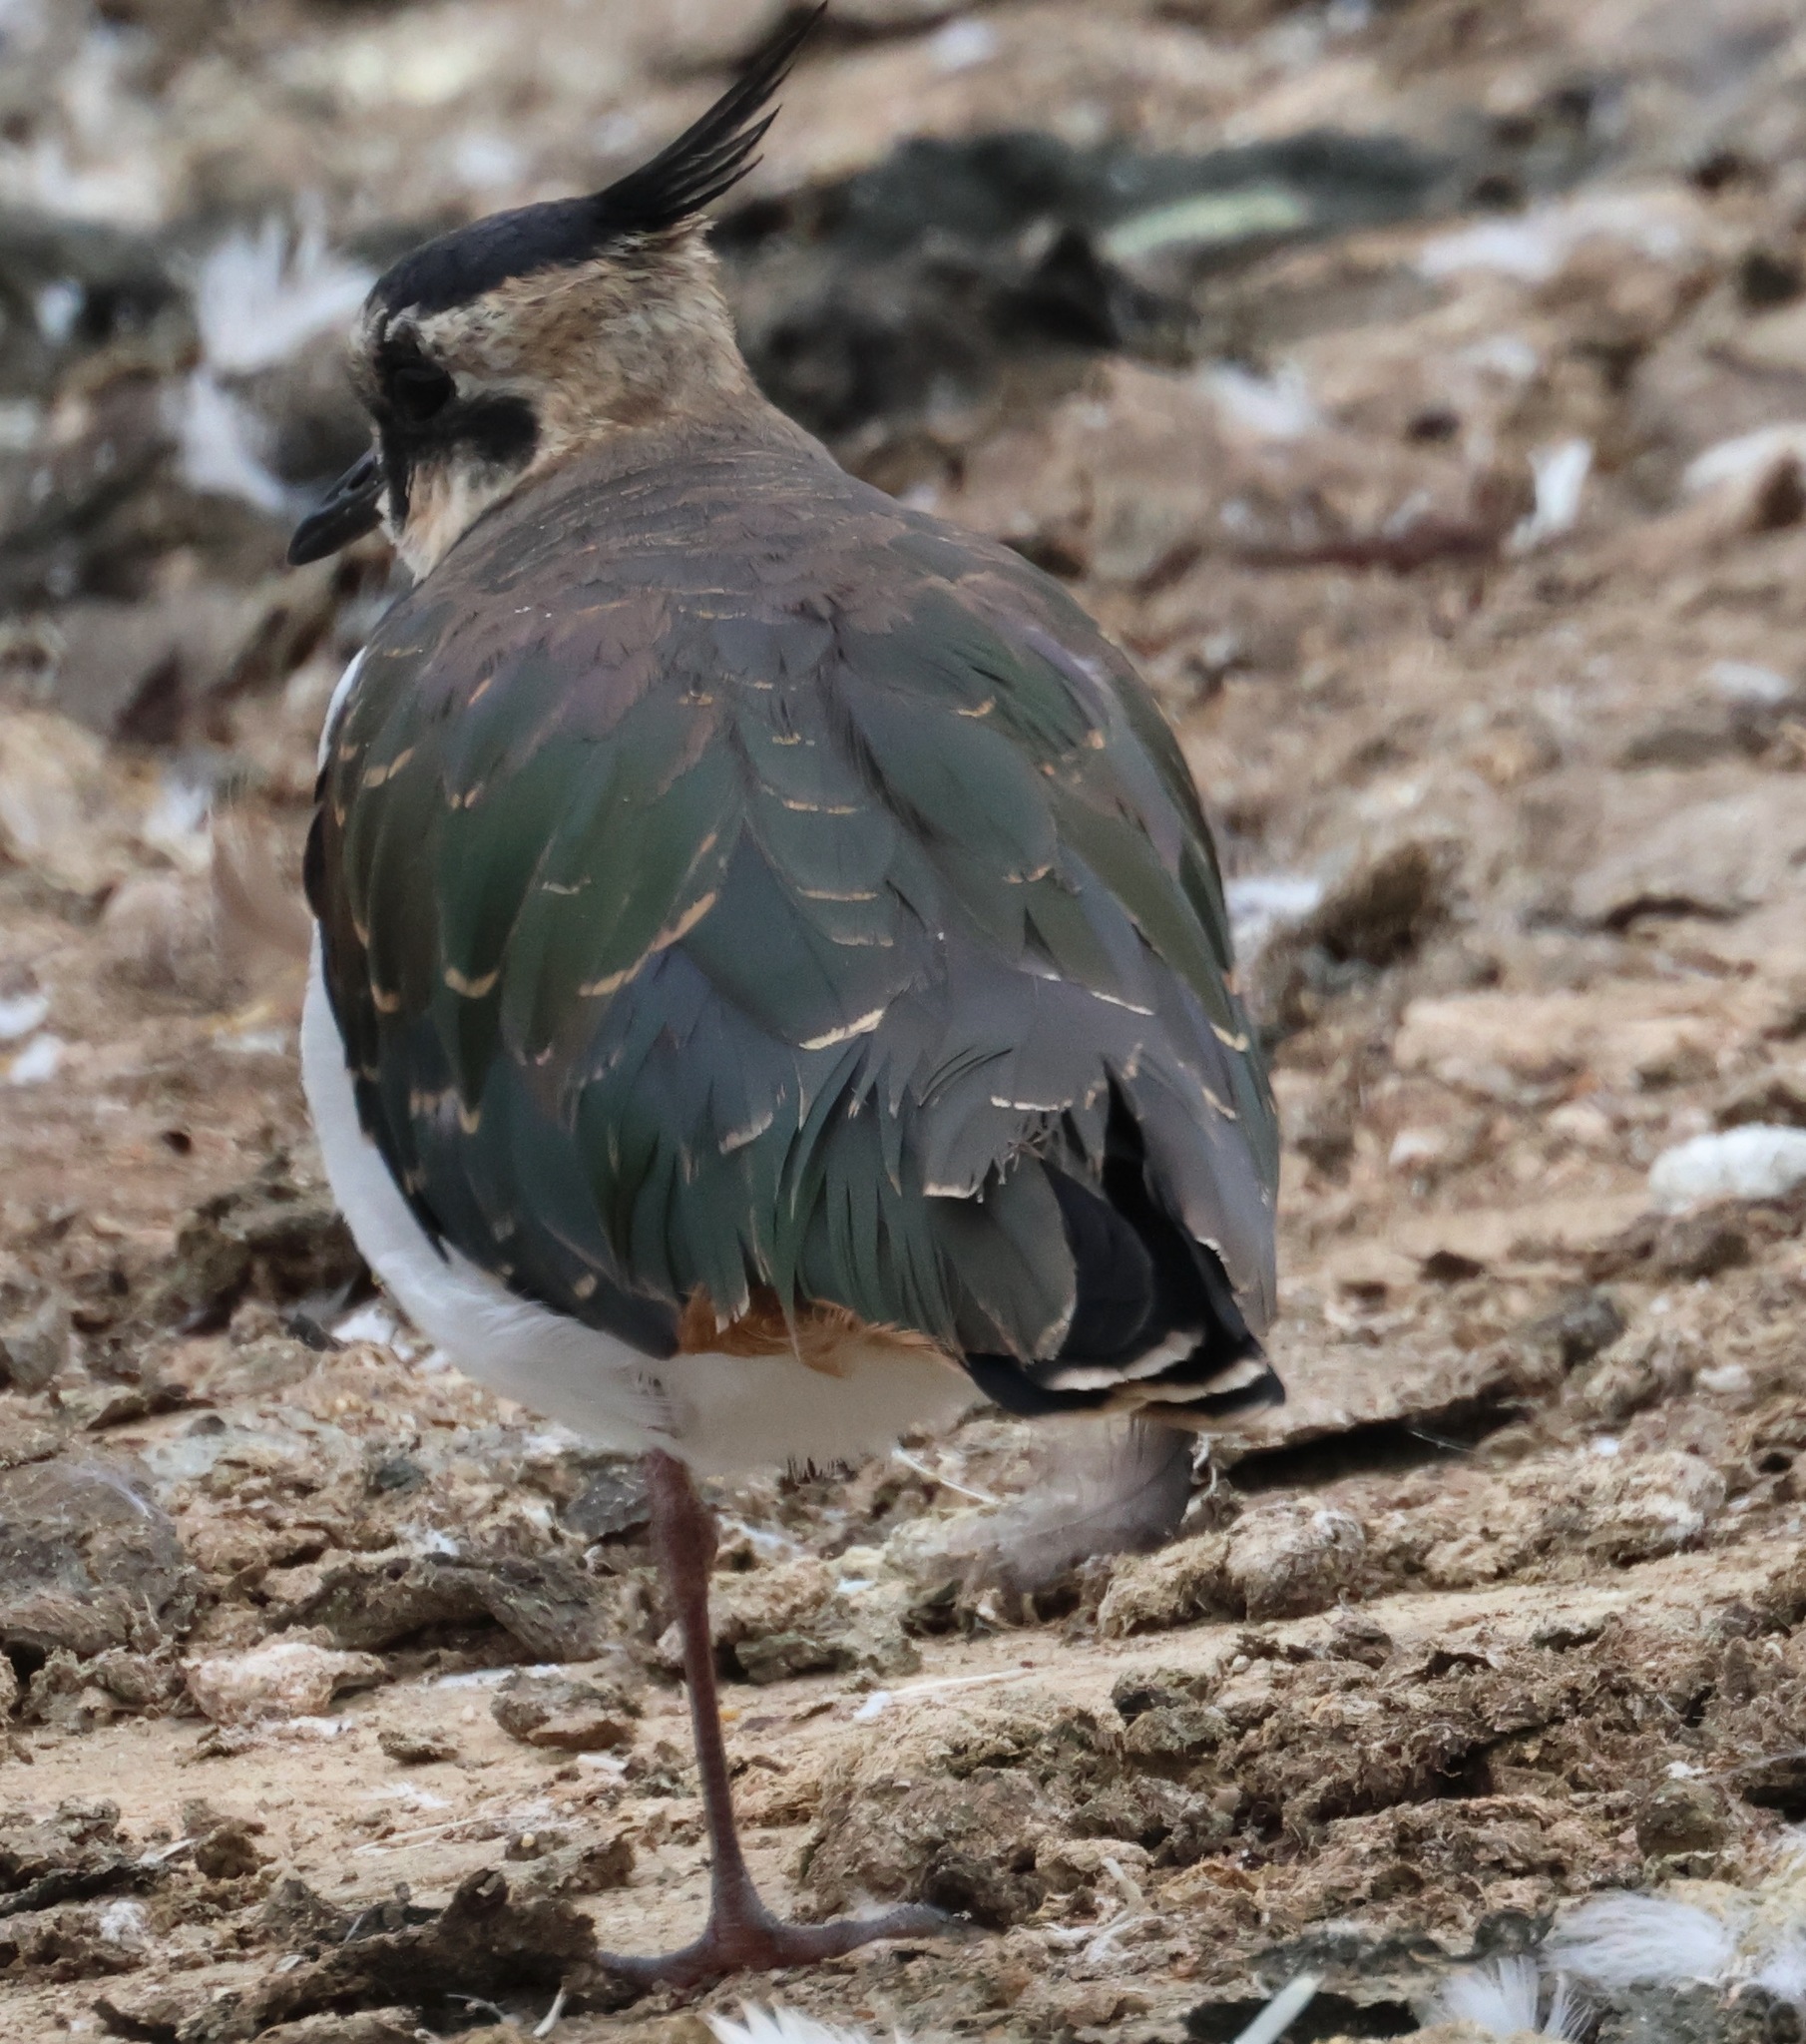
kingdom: Animalia
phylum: Chordata
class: Aves
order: Charadriiformes
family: Charadriidae
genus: Vanellus
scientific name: Vanellus vanellus
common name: Northern lapwing
